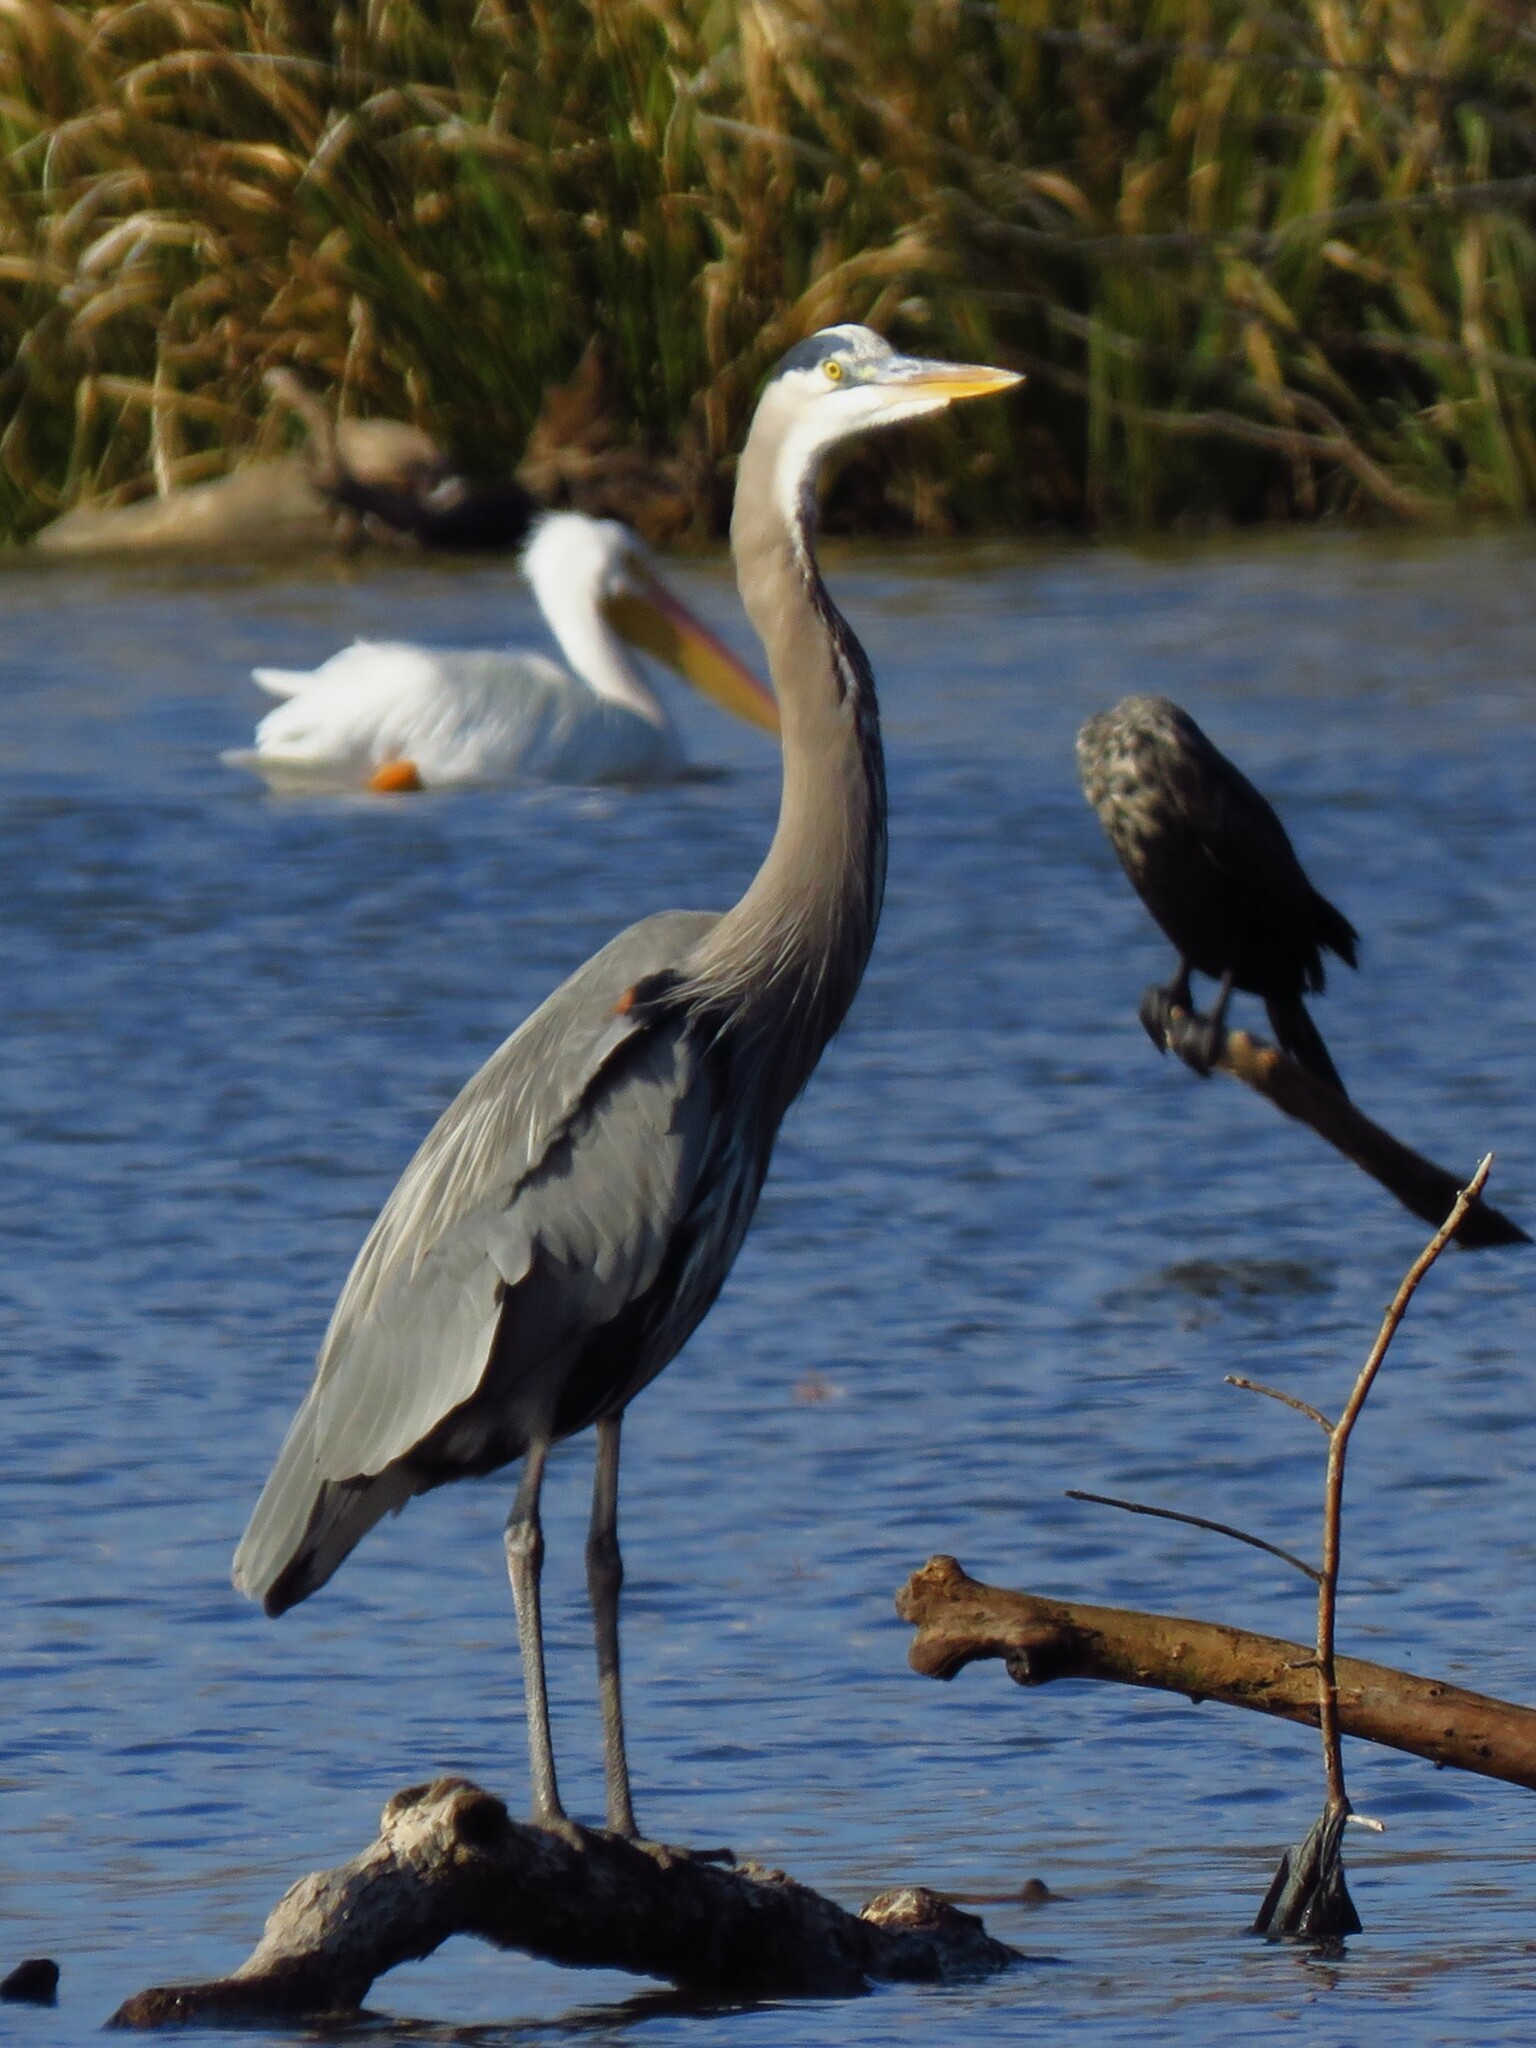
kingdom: Animalia
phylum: Chordata
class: Aves
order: Pelecaniformes
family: Ardeidae
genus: Ardea
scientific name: Ardea herodias
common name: Great blue heron
